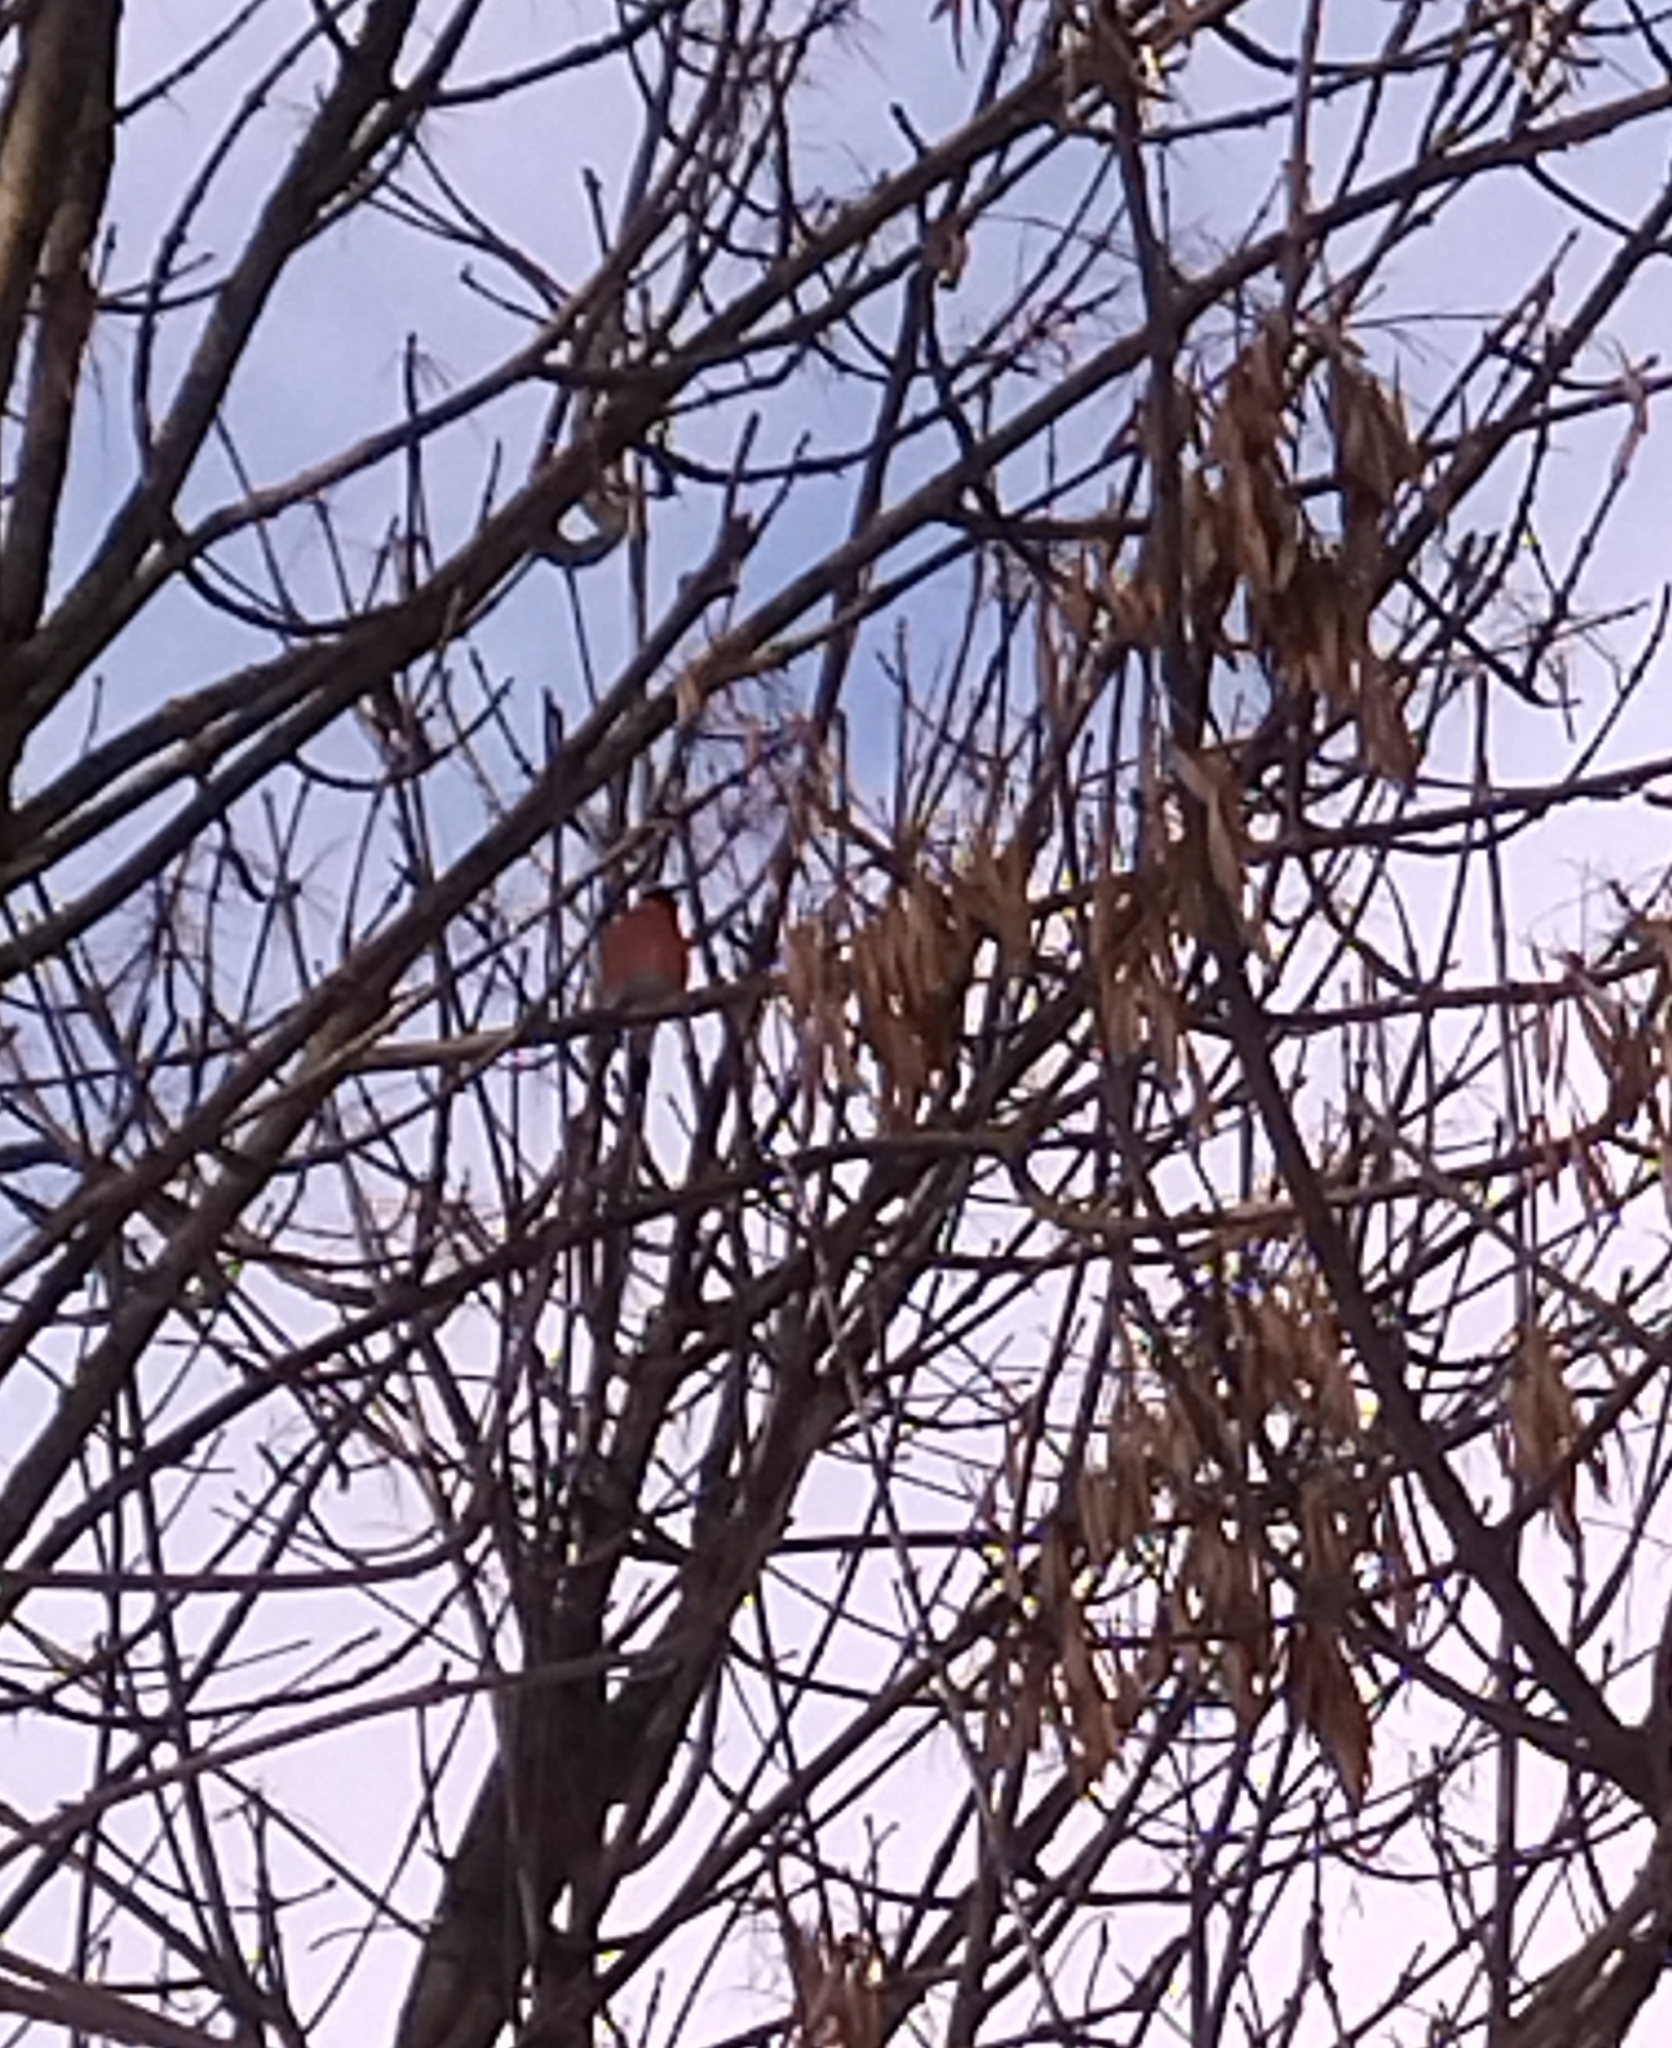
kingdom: Animalia
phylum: Chordata
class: Aves
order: Passeriformes
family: Fringillidae
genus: Pyrrhula
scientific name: Pyrrhula pyrrhula
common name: Eurasian bullfinch
